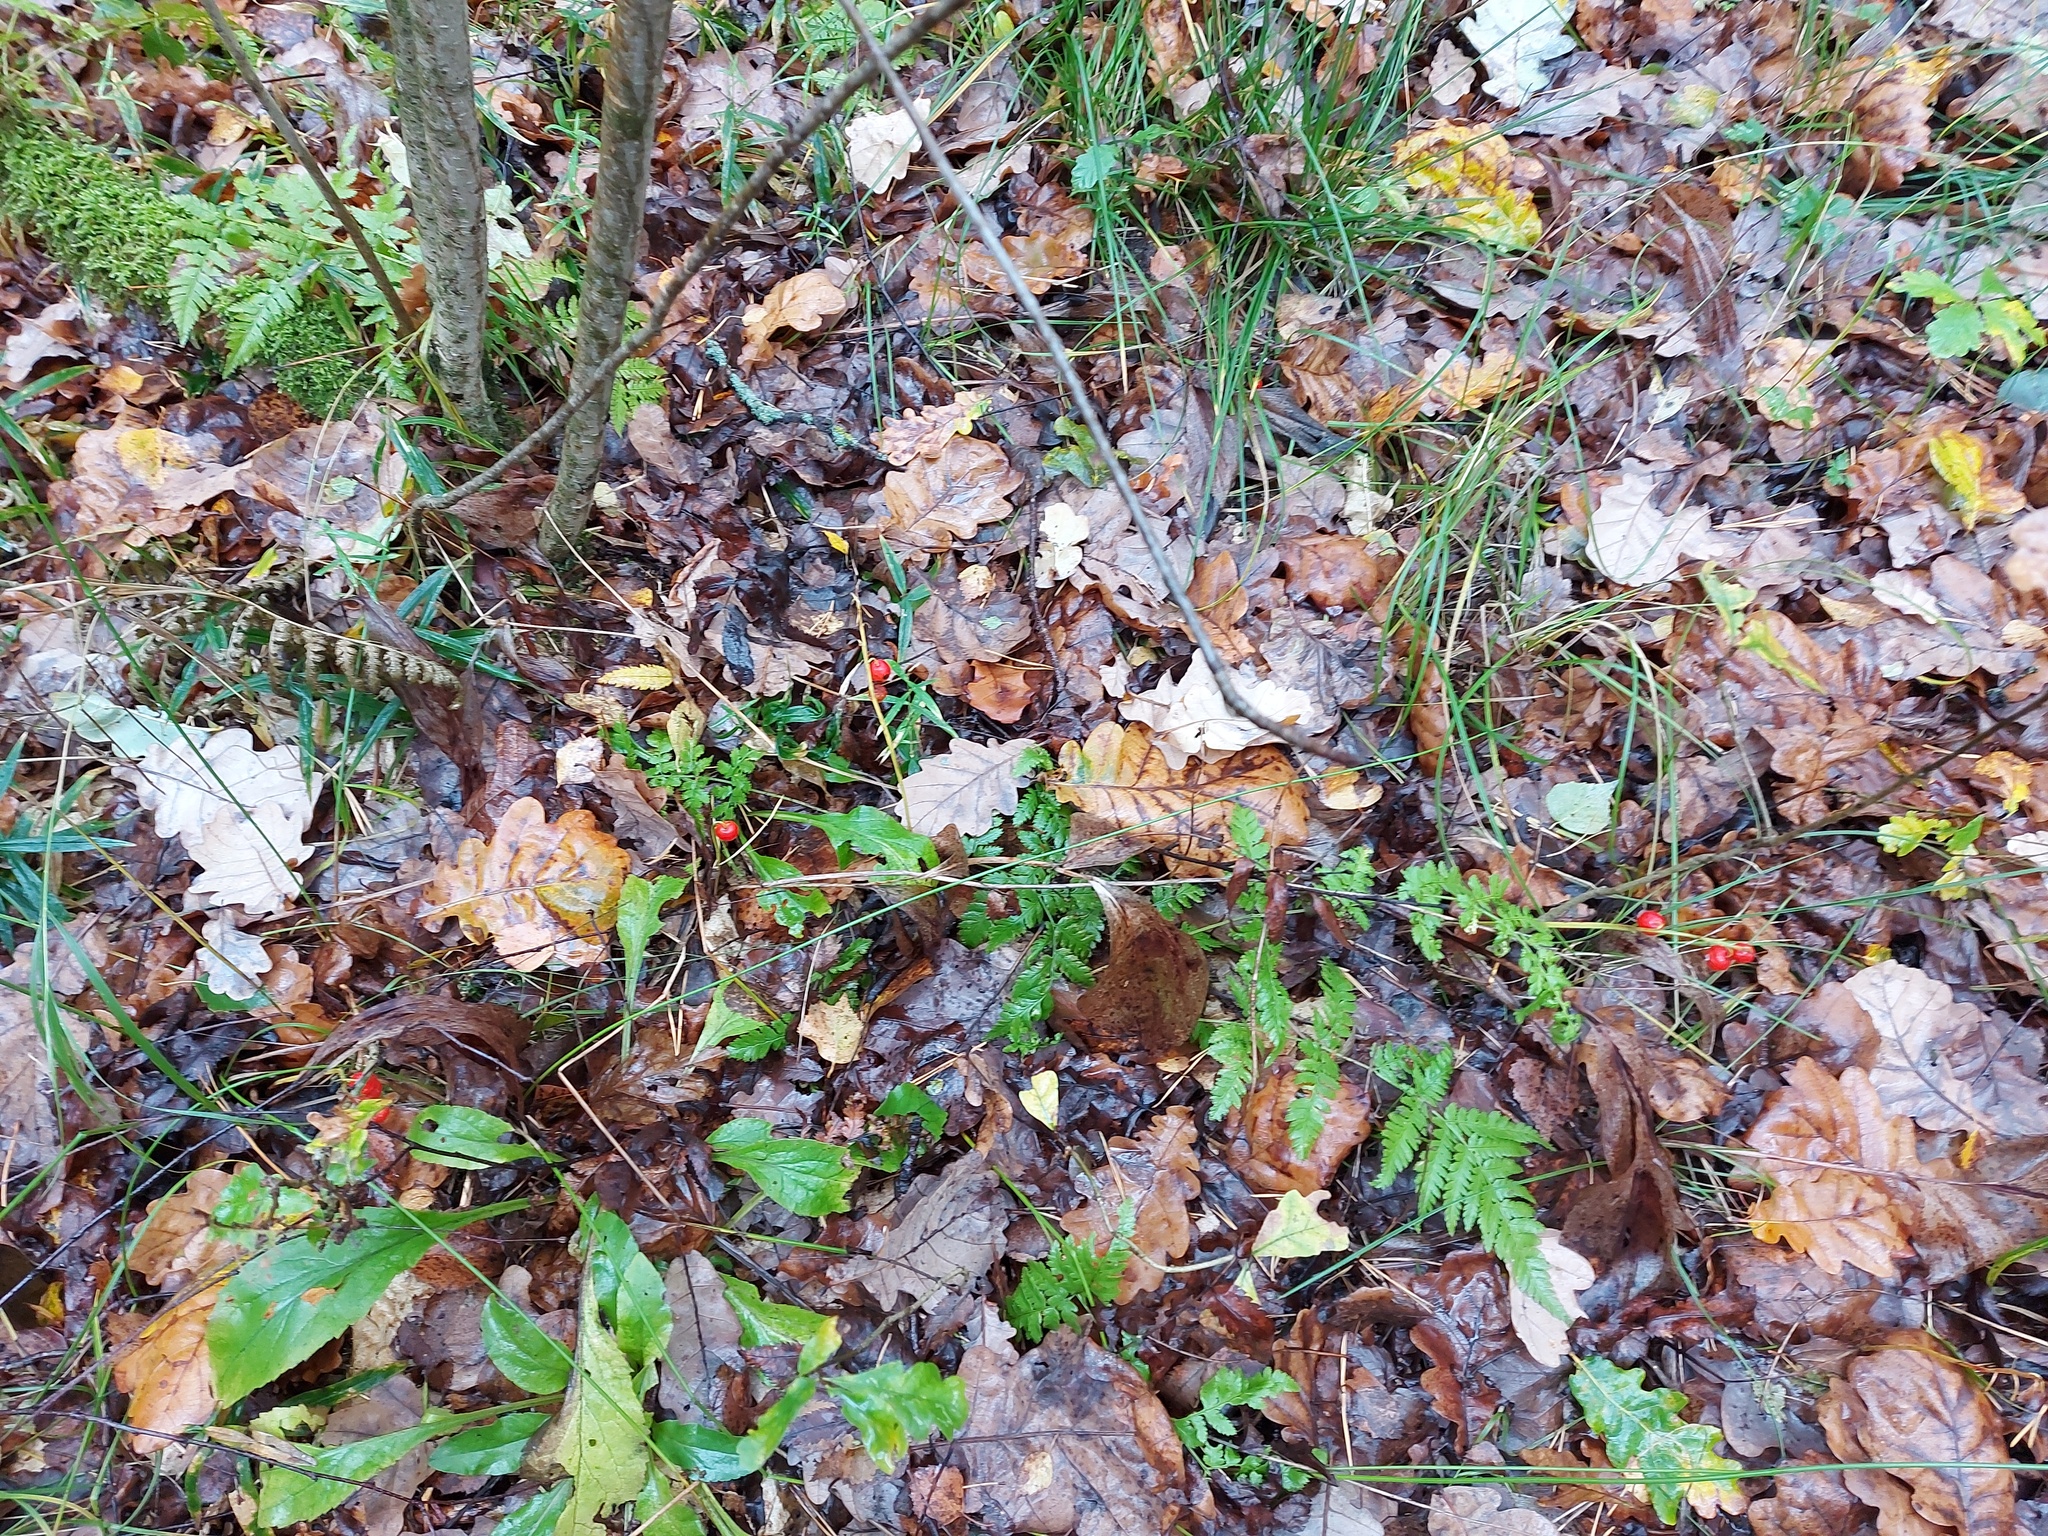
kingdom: Plantae
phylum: Tracheophyta
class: Liliopsida
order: Asparagales
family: Asparagaceae
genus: Convallaria
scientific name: Convallaria majalis
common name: Lily-of-the-valley
